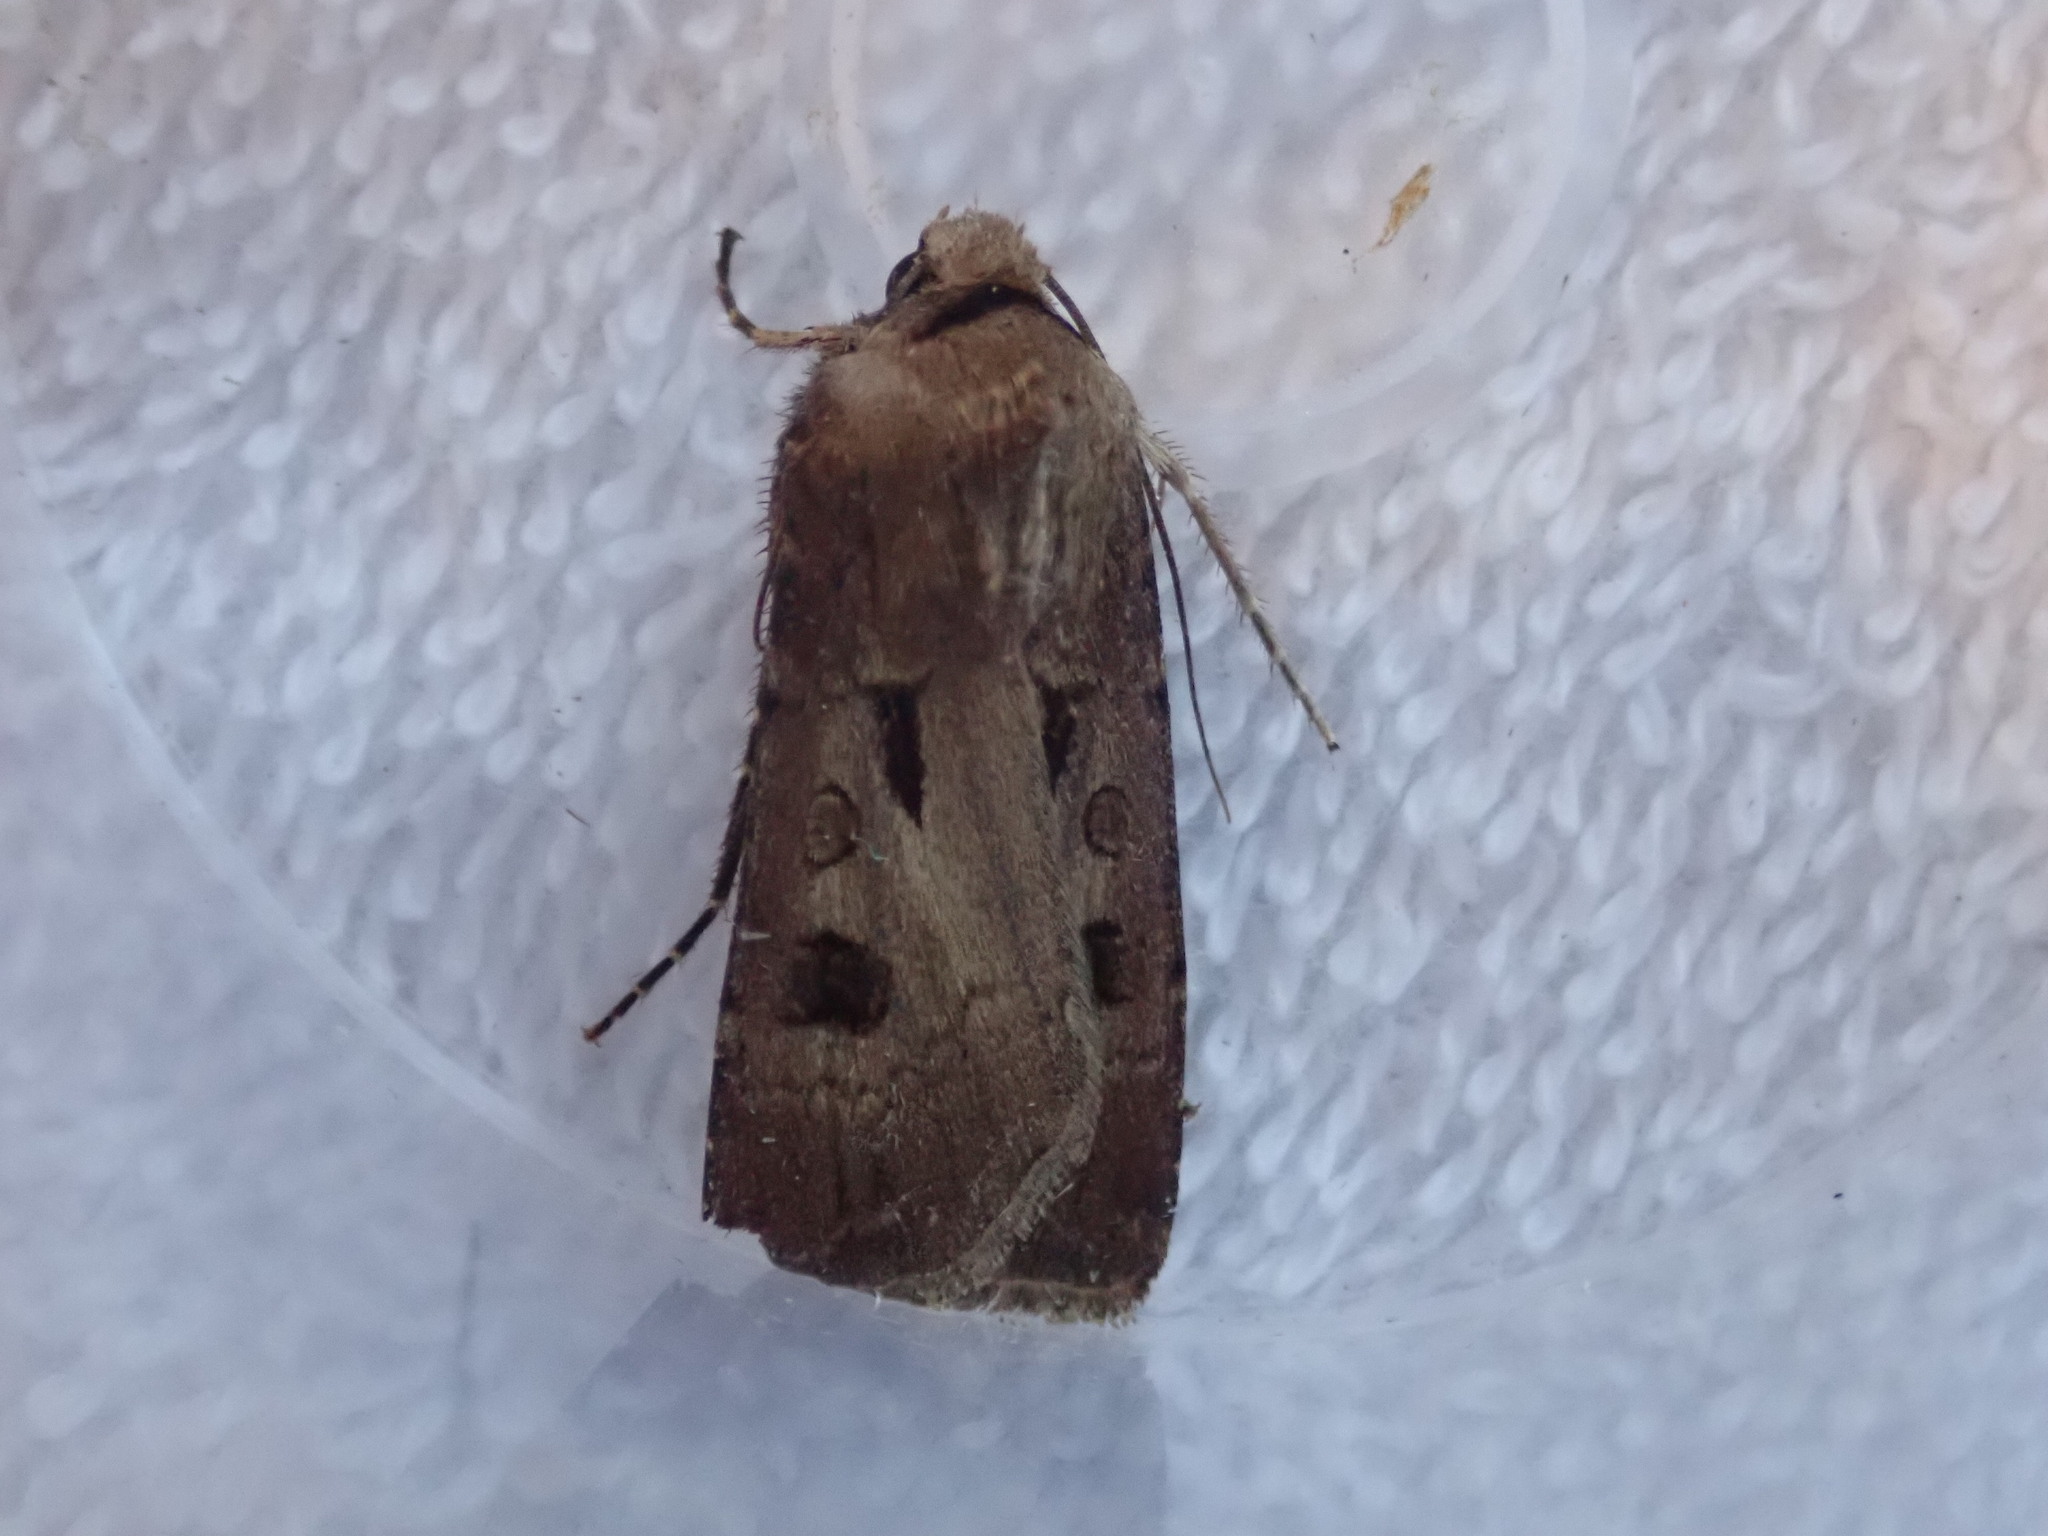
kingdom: Animalia
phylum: Arthropoda
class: Insecta
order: Lepidoptera
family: Noctuidae
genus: Agrotis
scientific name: Agrotis exclamationis
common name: Heart and dart
